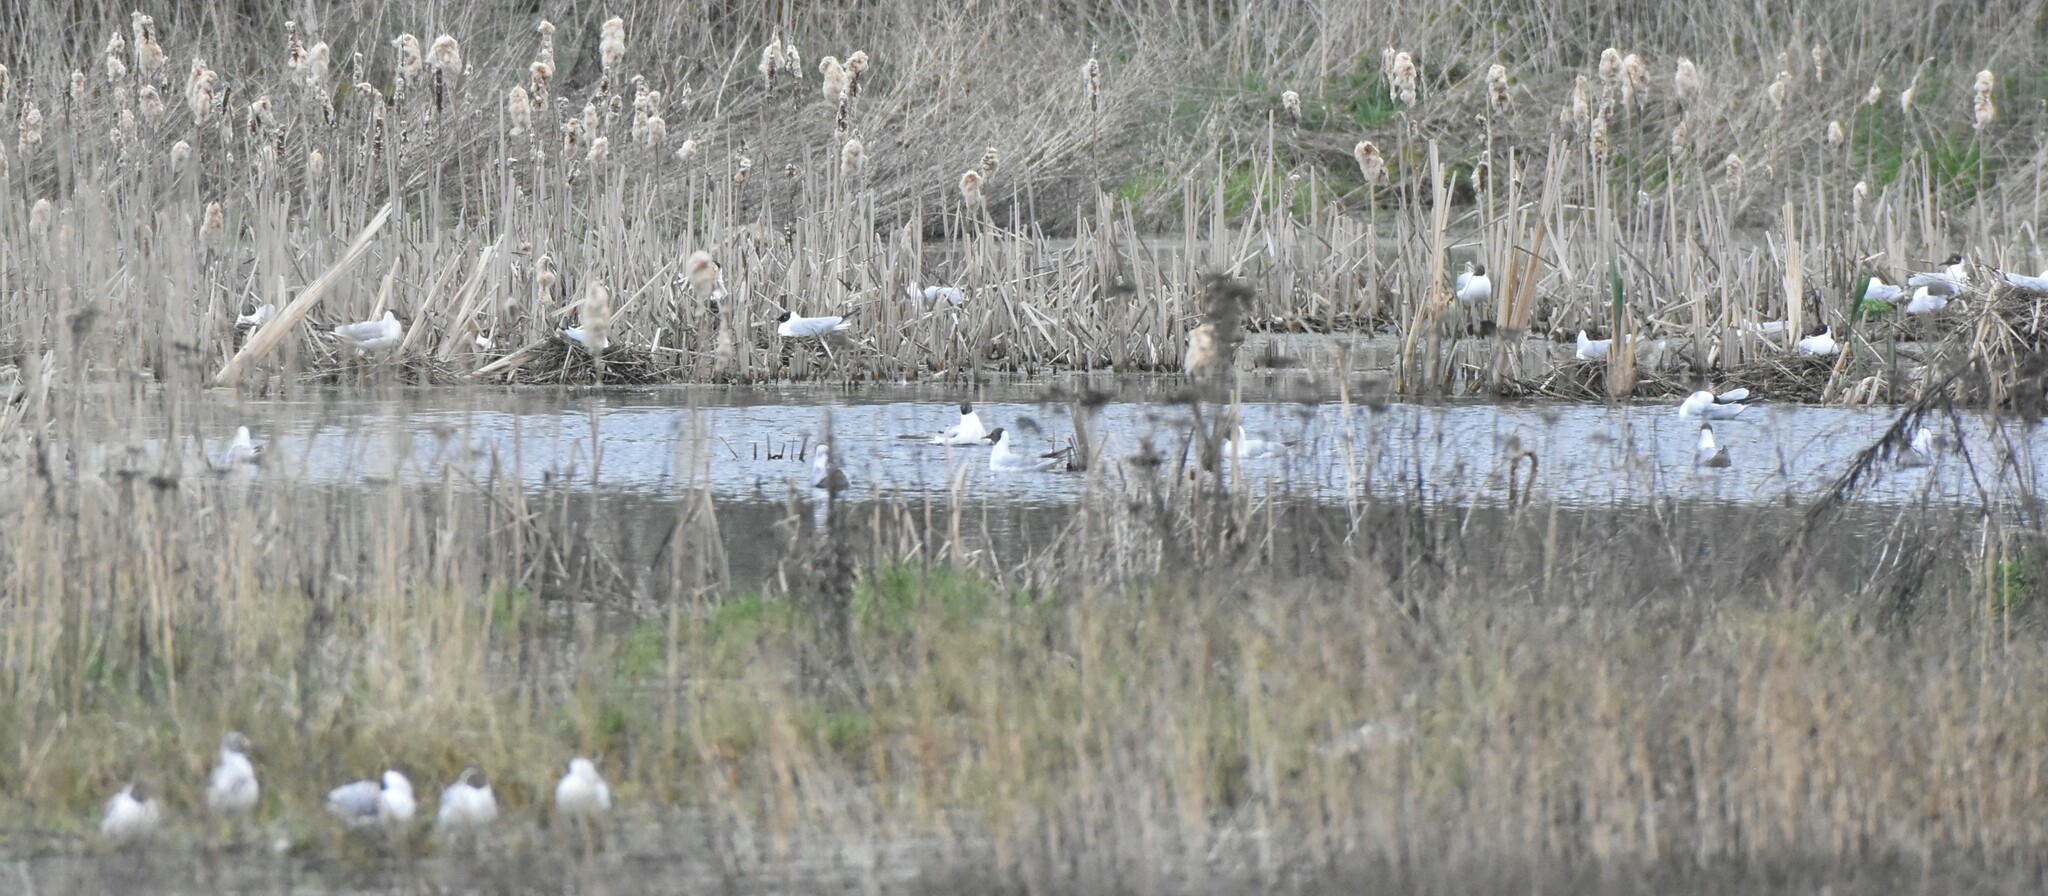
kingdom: Animalia
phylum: Chordata
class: Aves
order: Charadriiformes
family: Laridae
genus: Chroicocephalus
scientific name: Chroicocephalus ridibundus
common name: Black-headed gull
